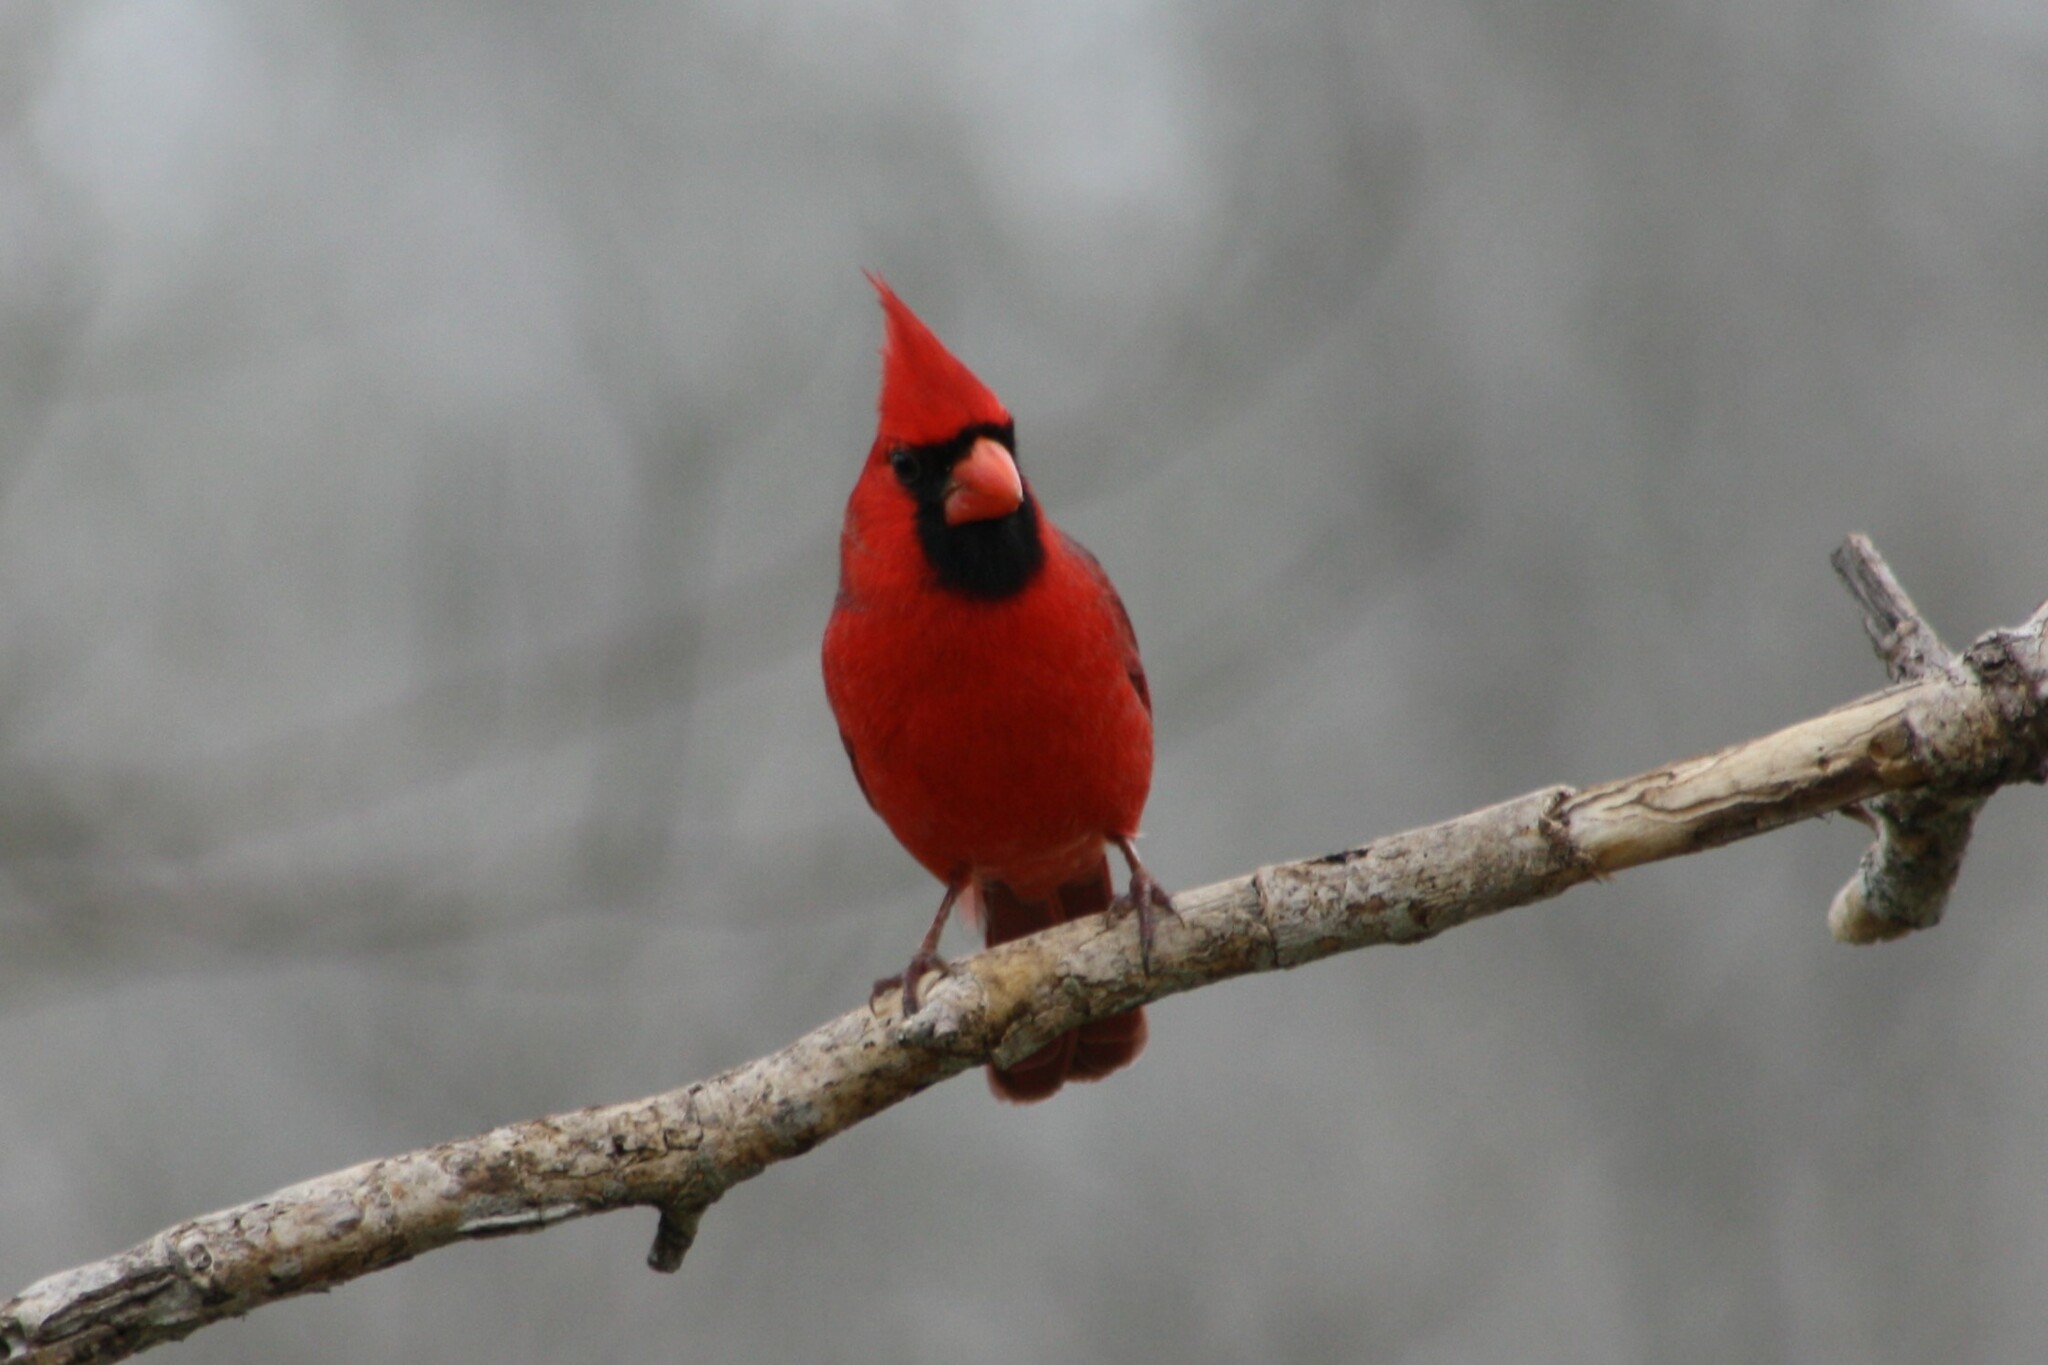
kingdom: Animalia
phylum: Chordata
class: Aves
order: Passeriformes
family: Cardinalidae
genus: Cardinalis
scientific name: Cardinalis cardinalis
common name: Northern cardinal
